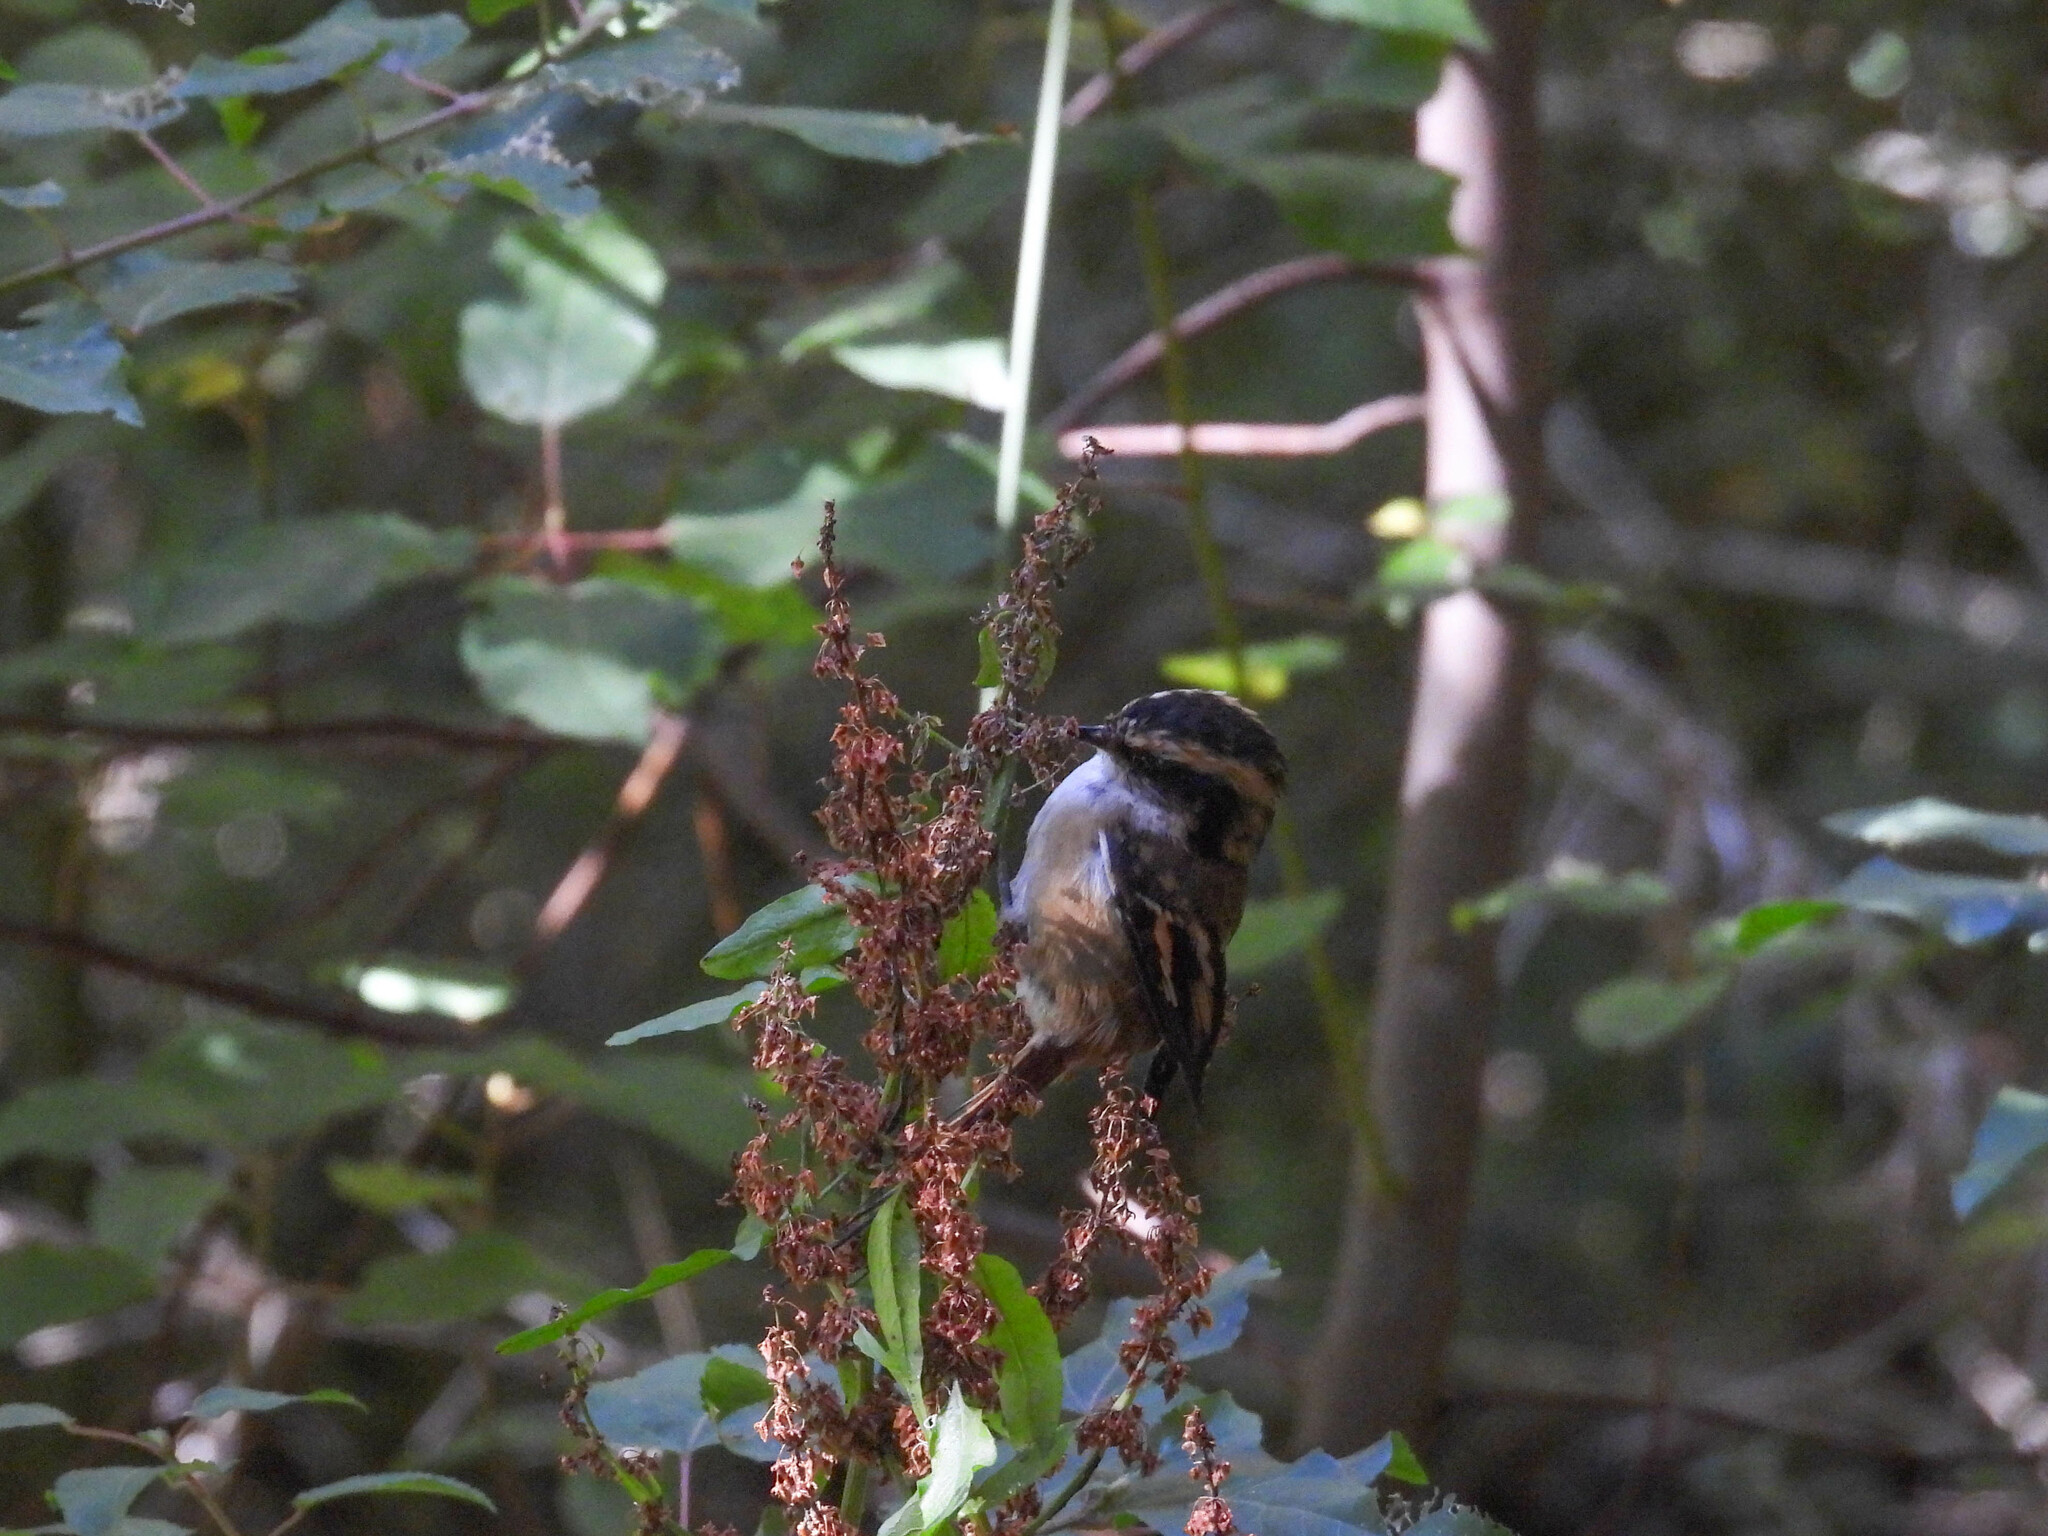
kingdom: Animalia
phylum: Chordata
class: Aves
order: Passeriformes
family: Furnariidae
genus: Aphrastura
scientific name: Aphrastura spinicauda
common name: Thorn-tailed rayadito
